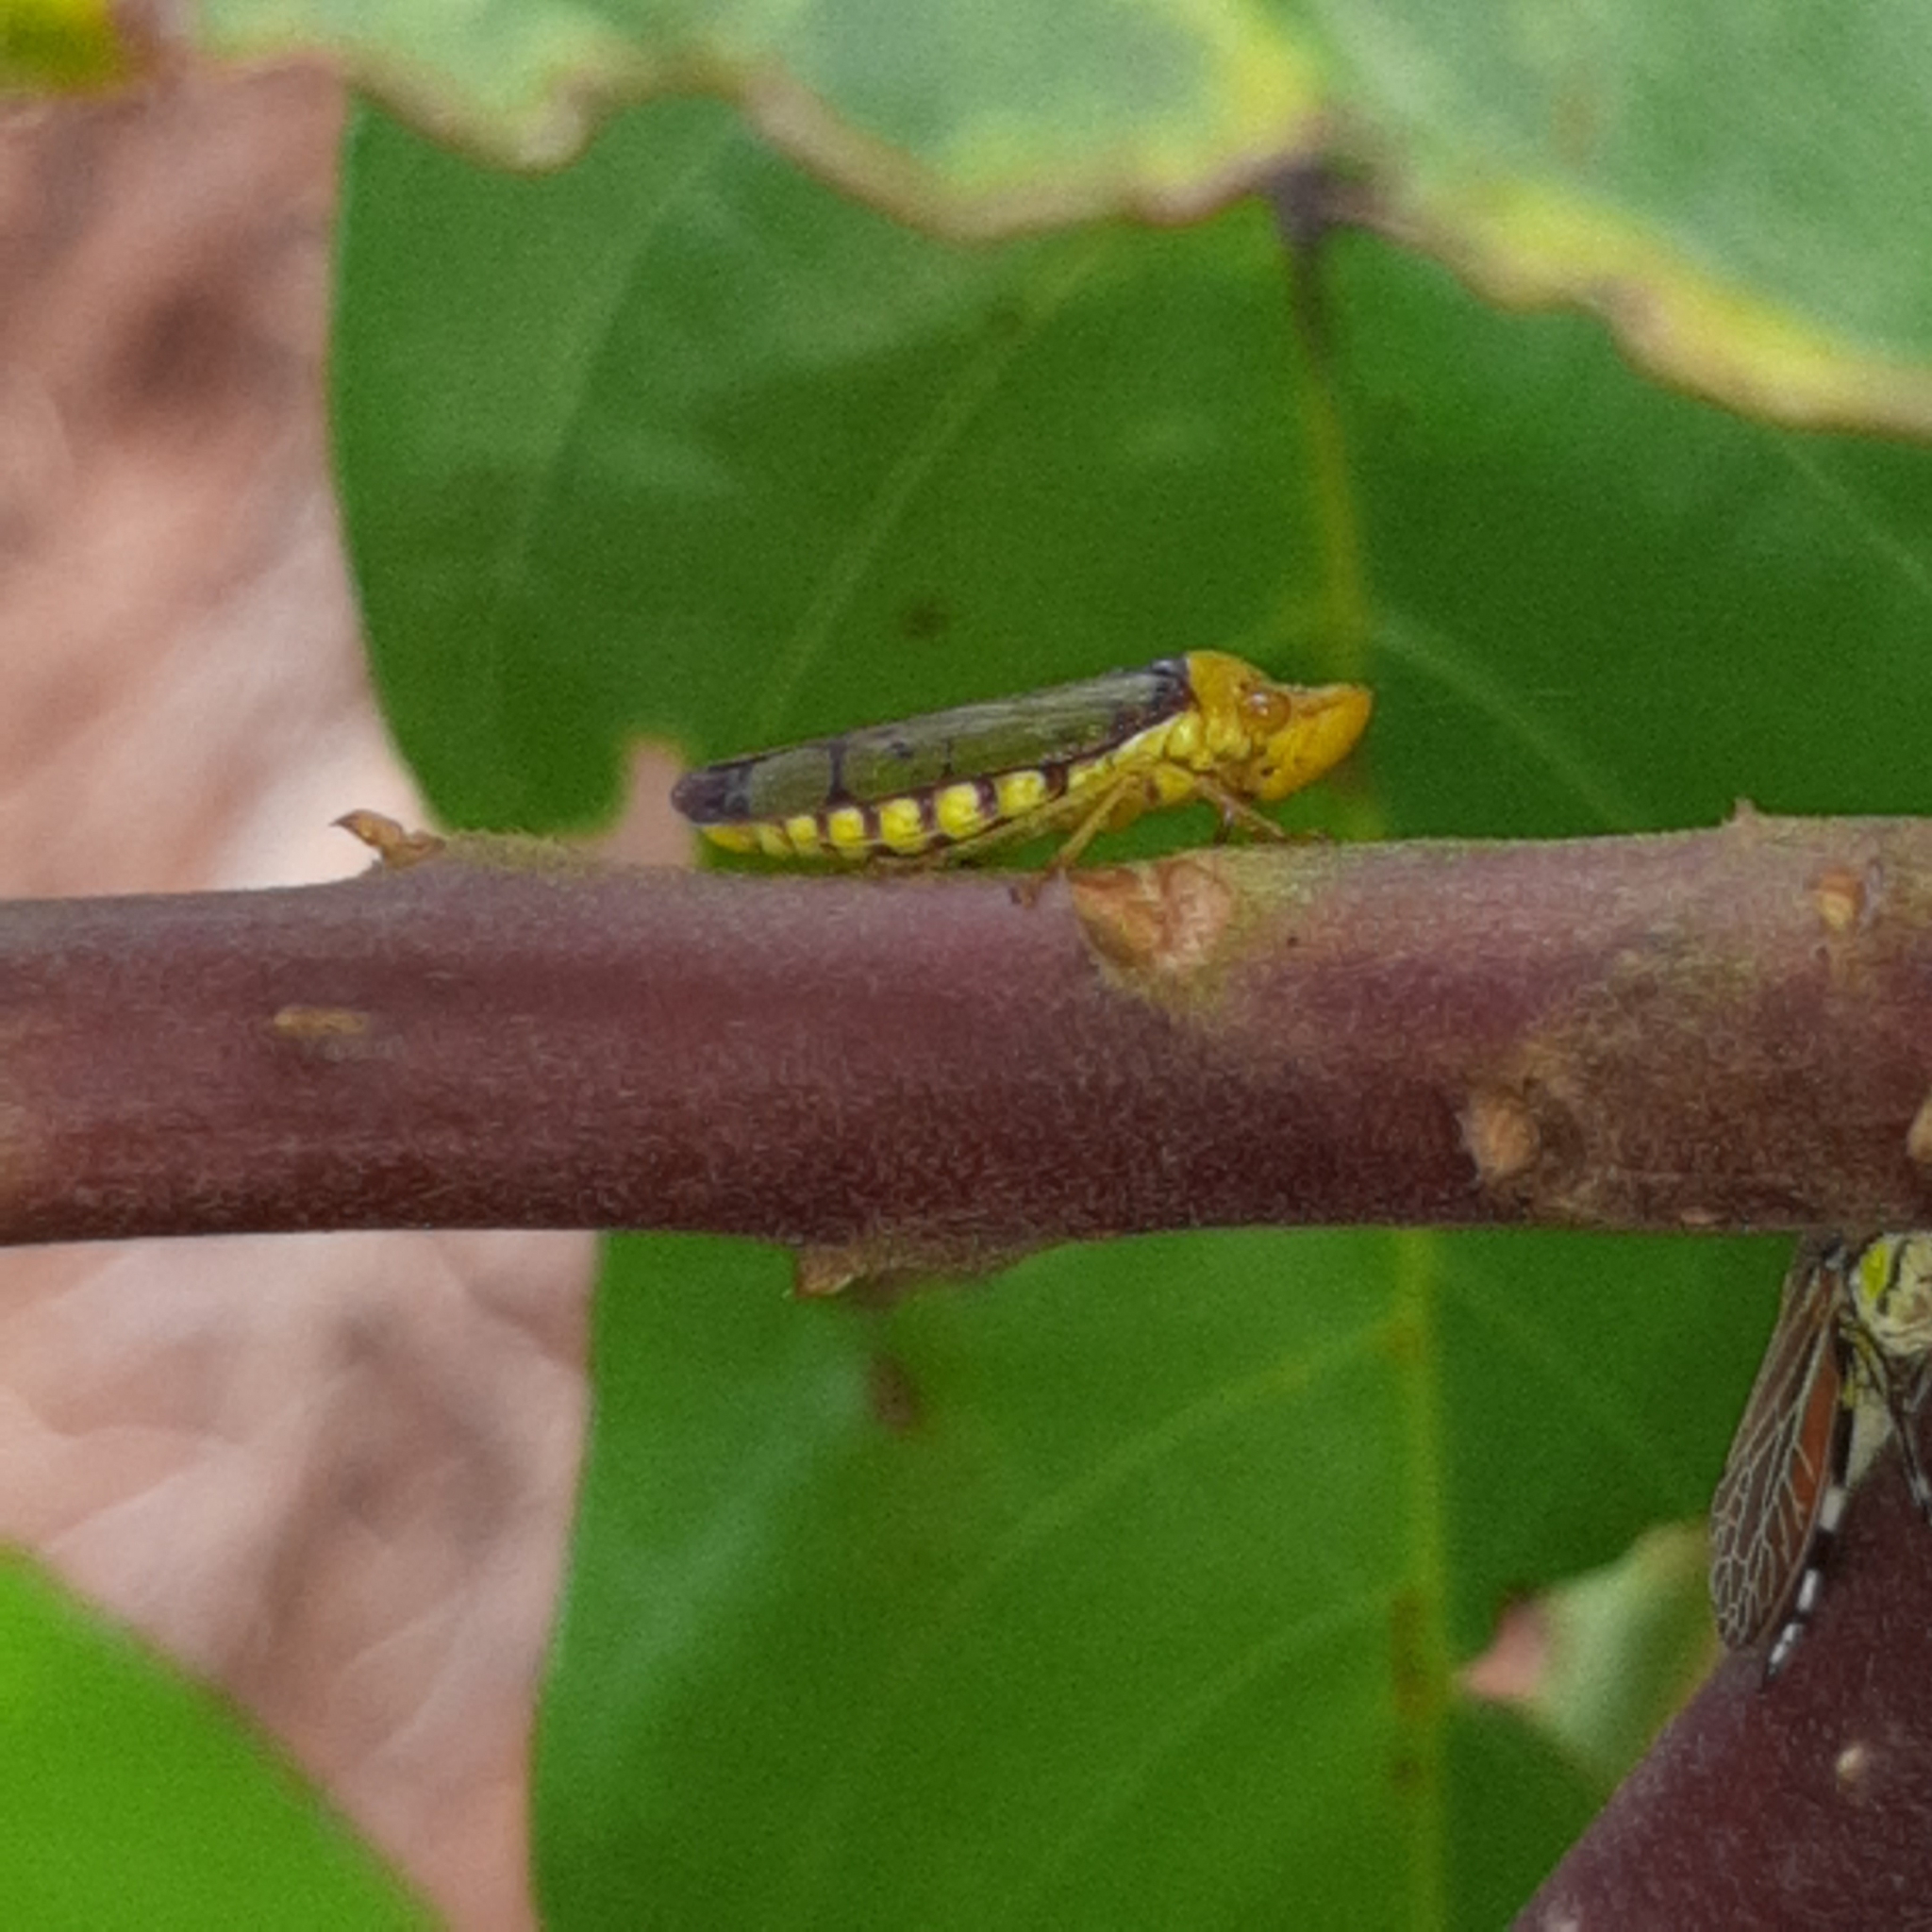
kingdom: Animalia
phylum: Arthropoda
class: Insecta
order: Hemiptera
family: Cicadellidae
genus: Paraulacizes
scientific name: Paraulacizes panamensis
